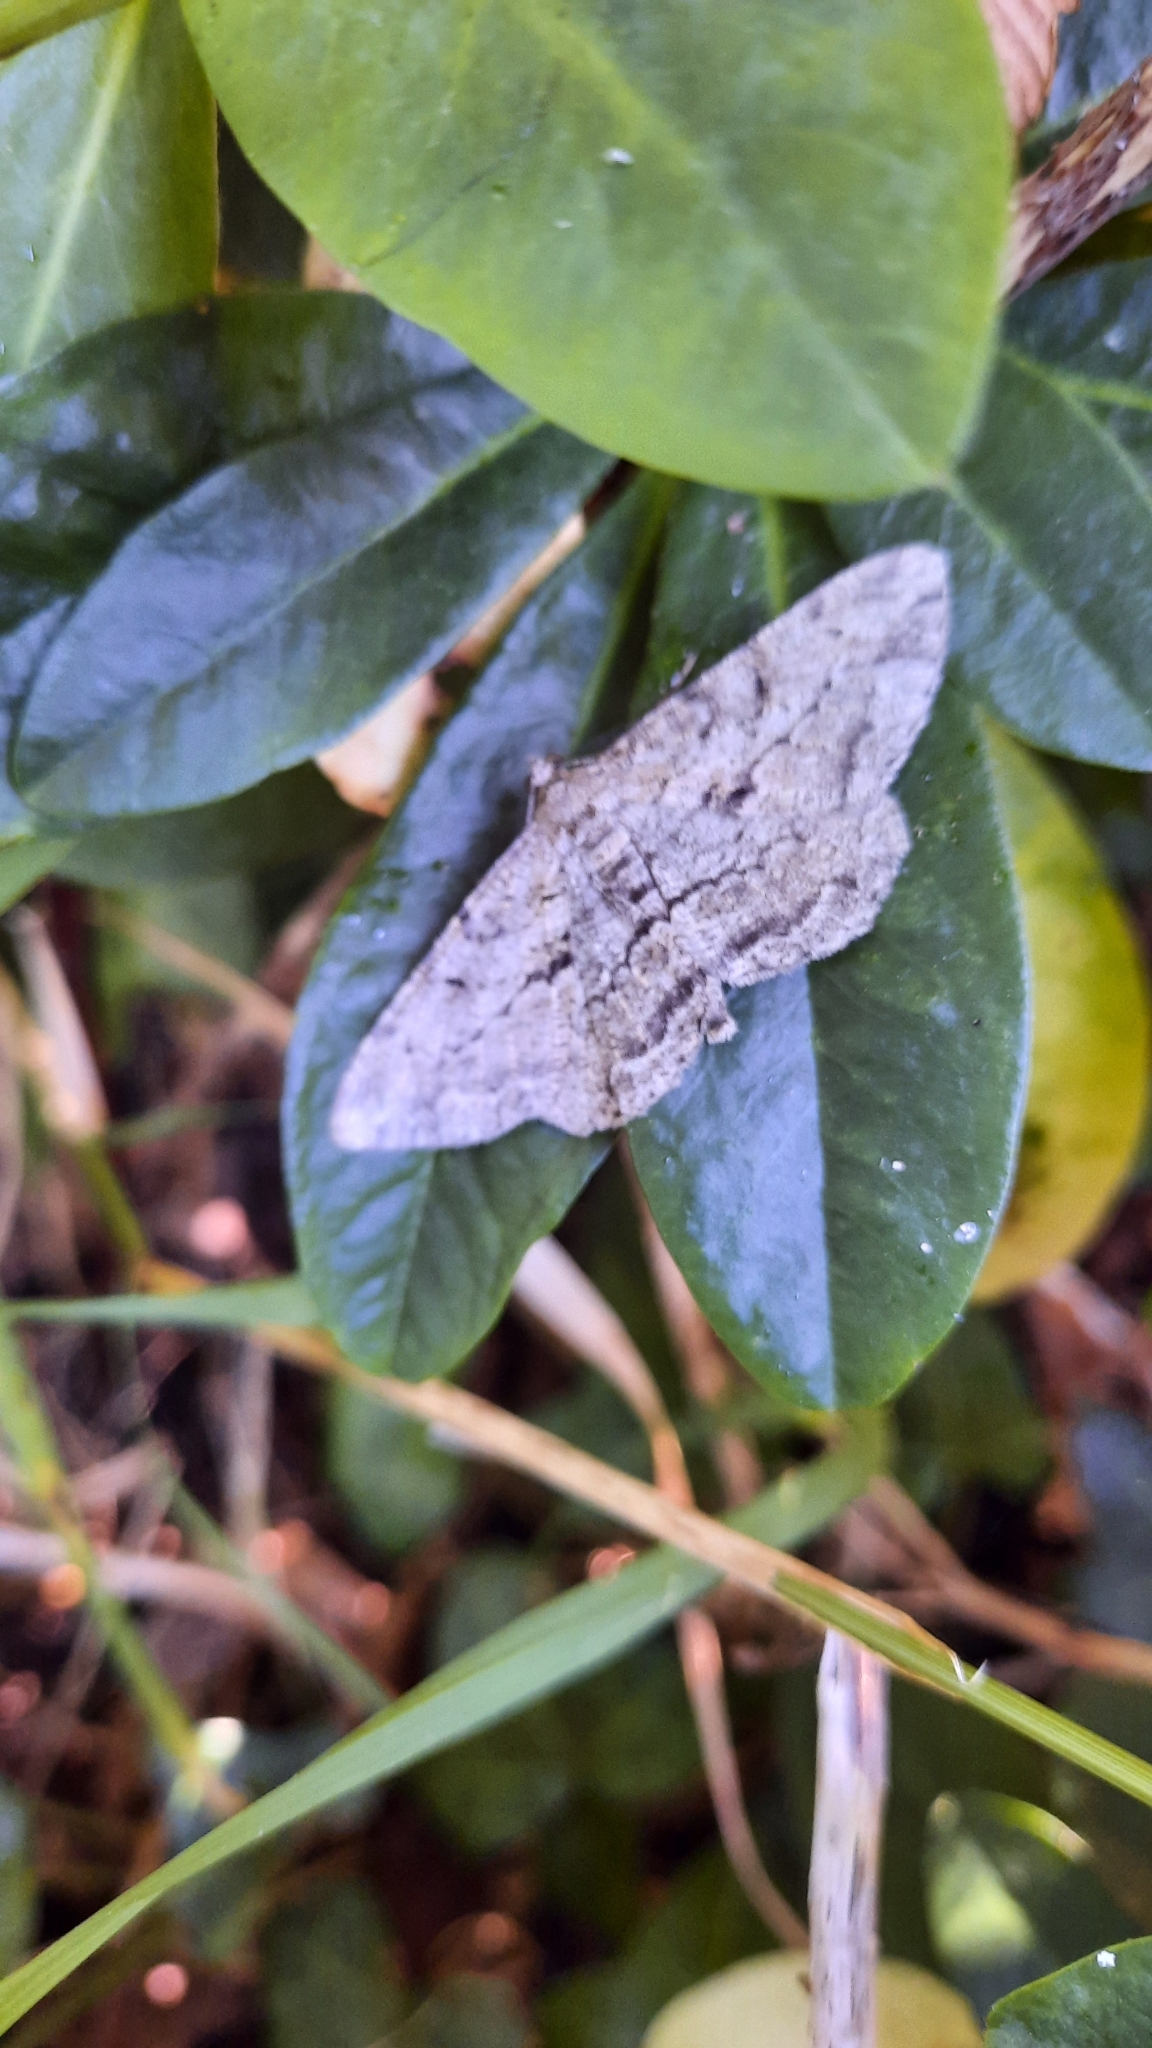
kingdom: Animalia
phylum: Arthropoda
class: Insecta
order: Lepidoptera
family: Geometridae
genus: Peribatodes
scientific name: Peribatodes rhomboidaria
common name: Willow beauty
